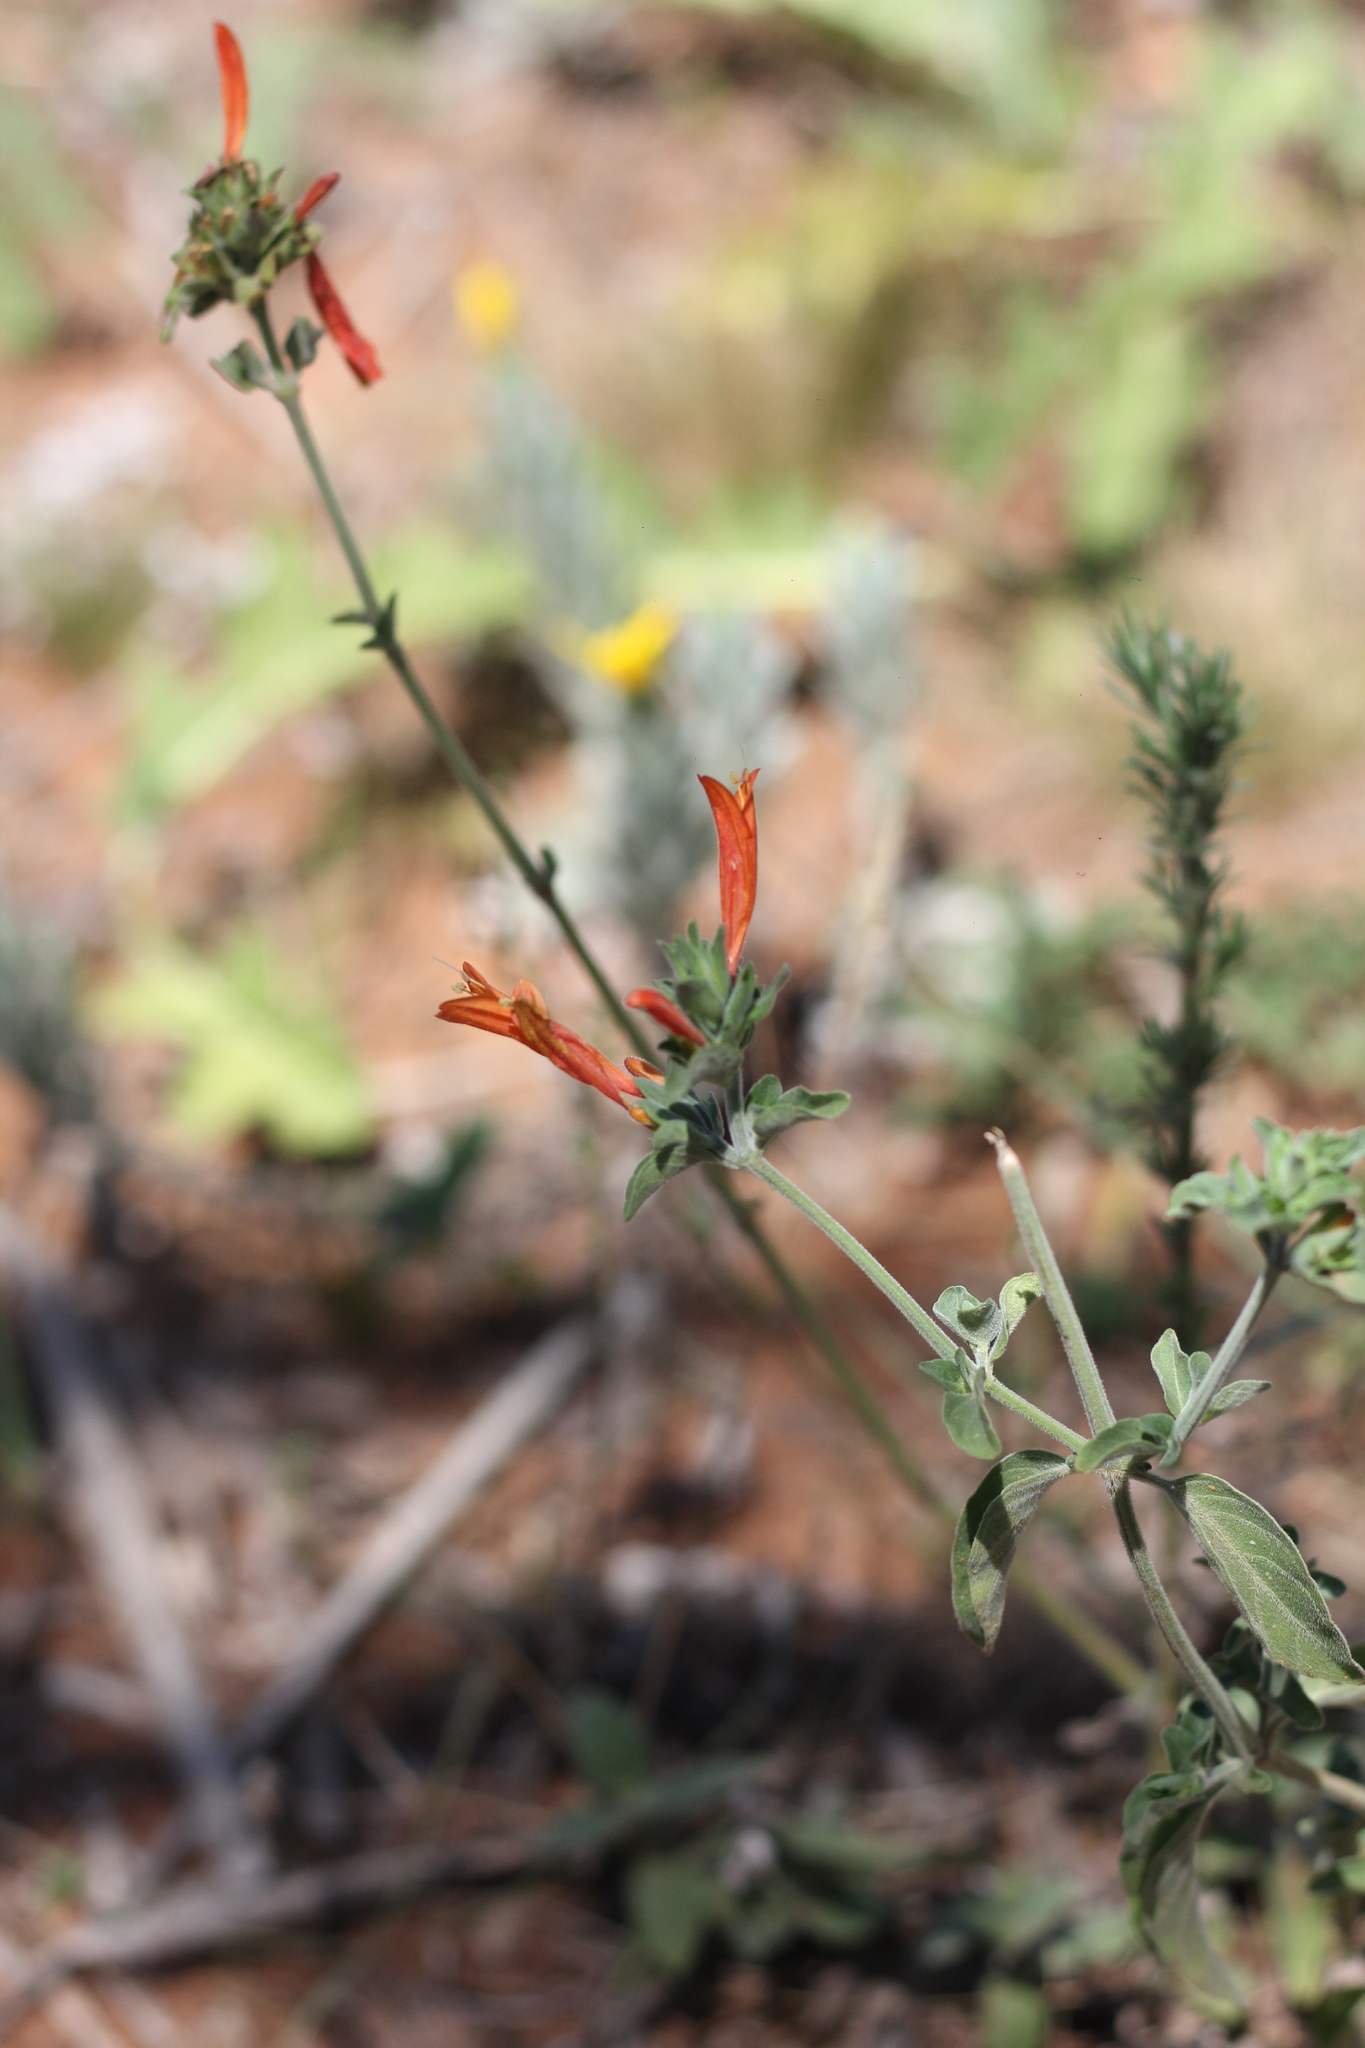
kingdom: Plantae
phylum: Tracheophyta
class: Magnoliopsida
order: Lamiales
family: Acanthaceae
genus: Dicliptera
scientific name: Dicliptera squarrosa
